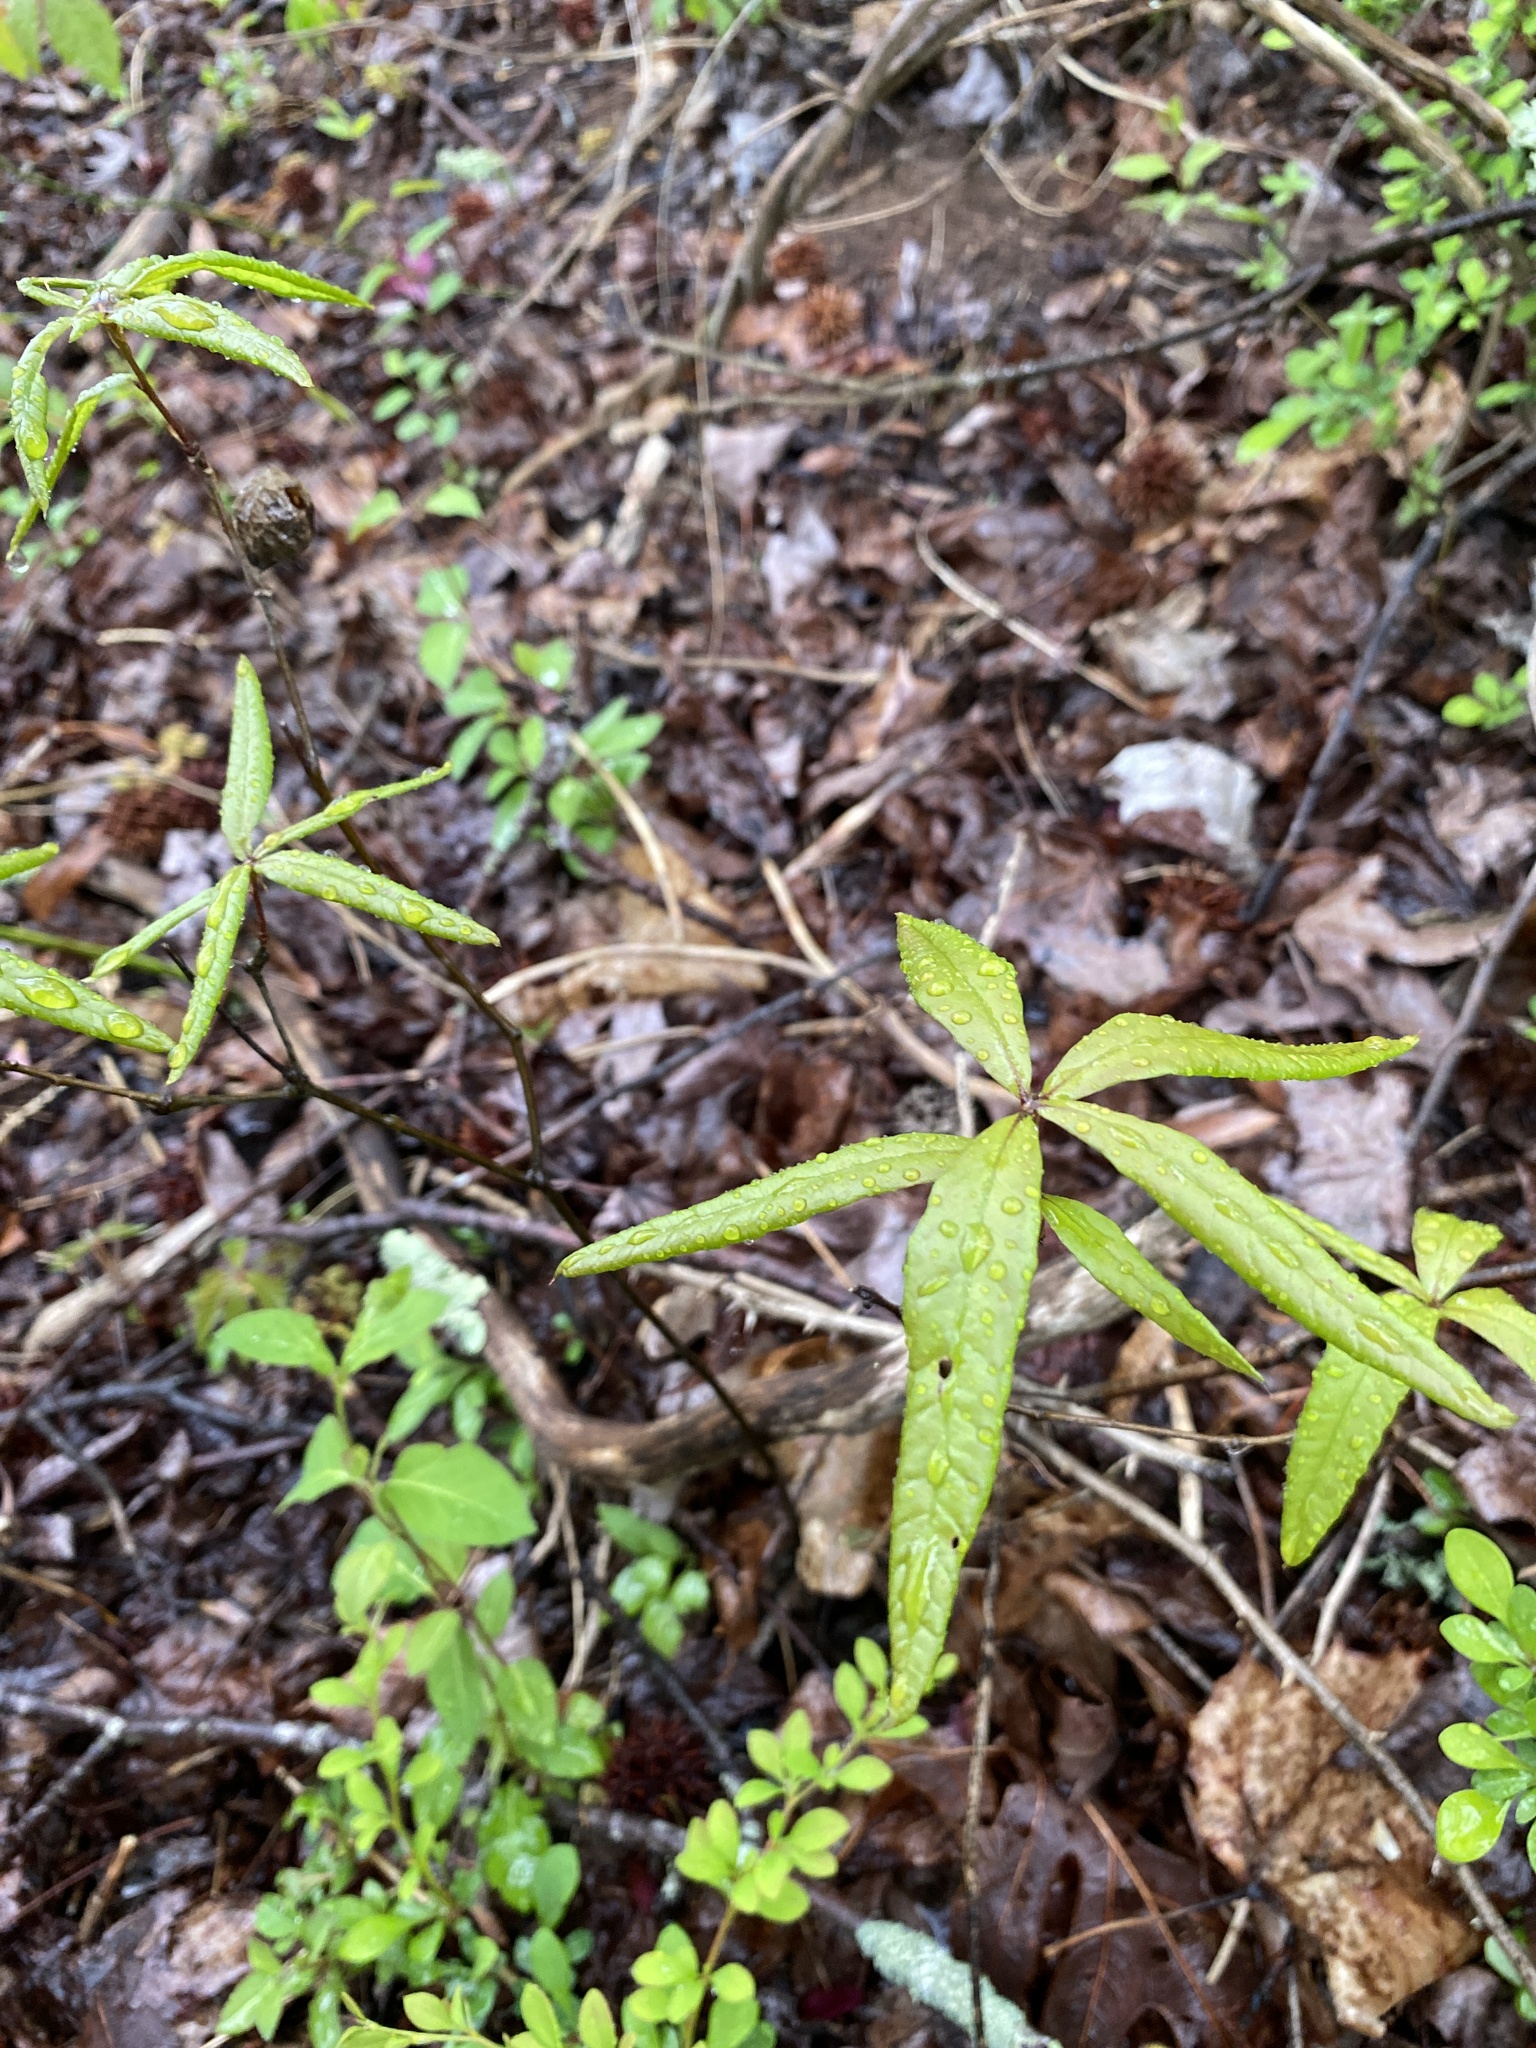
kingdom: Plantae
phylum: Tracheophyta
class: Magnoliopsida
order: Fagales
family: Fagaceae
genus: Quercus
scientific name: Quercus phellos
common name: Willow oak
